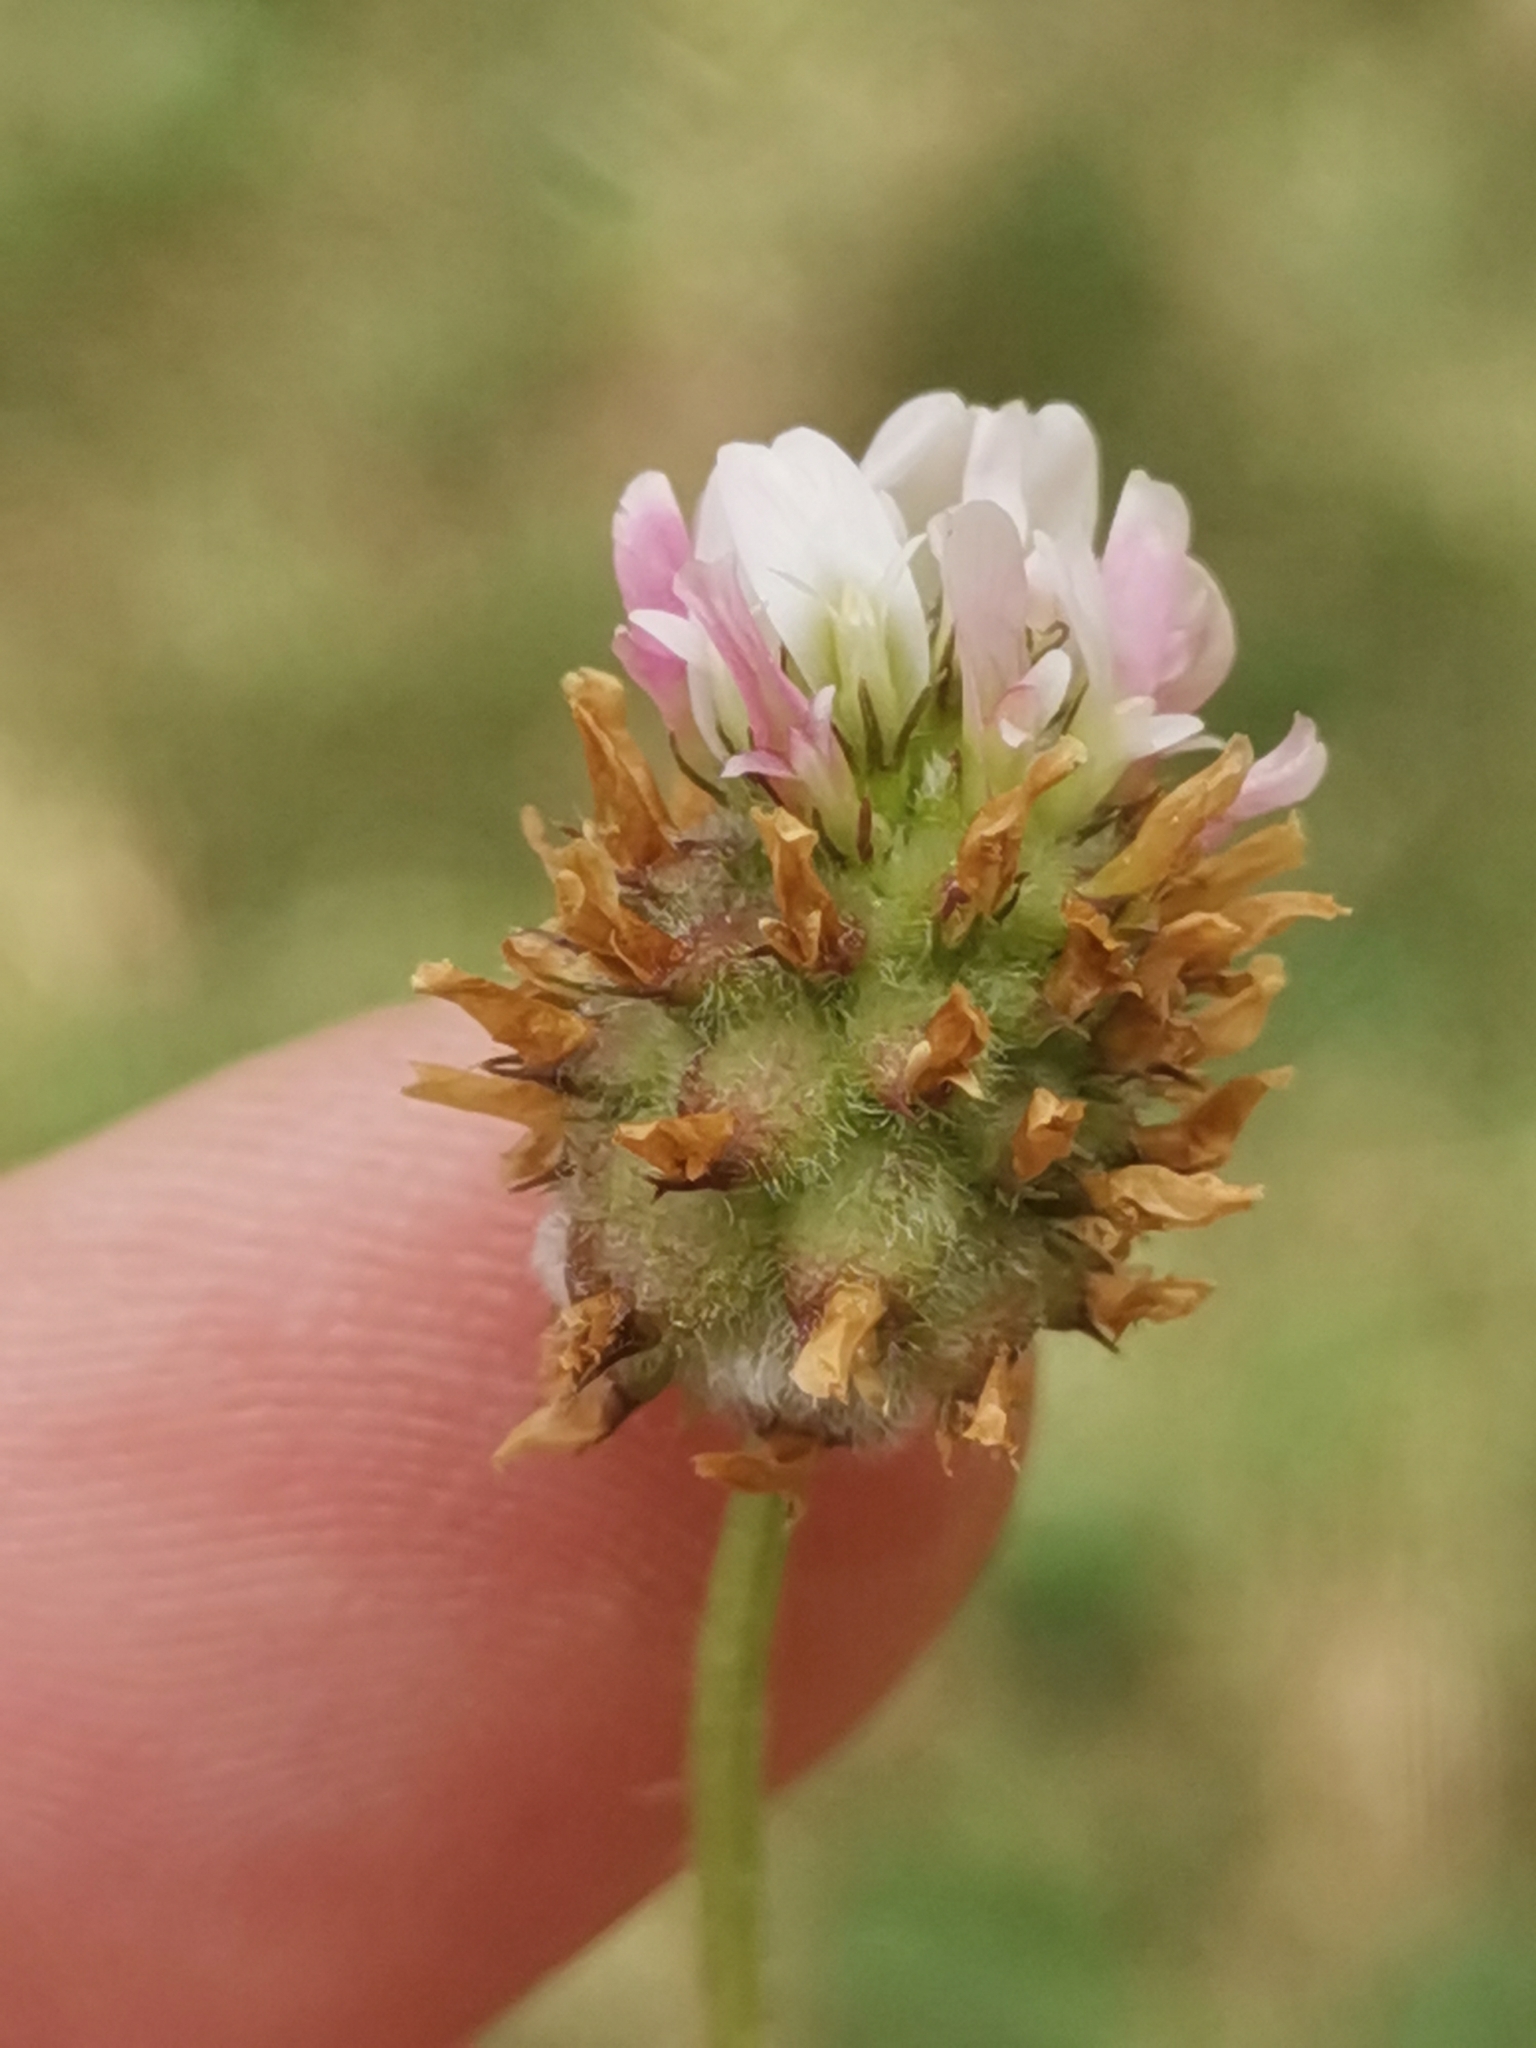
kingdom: Plantae
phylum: Tracheophyta
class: Magnoliopsida
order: Fabales
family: Fabaceae
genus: Trifolium
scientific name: Trifolium fragiferum
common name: Strawberry clover
